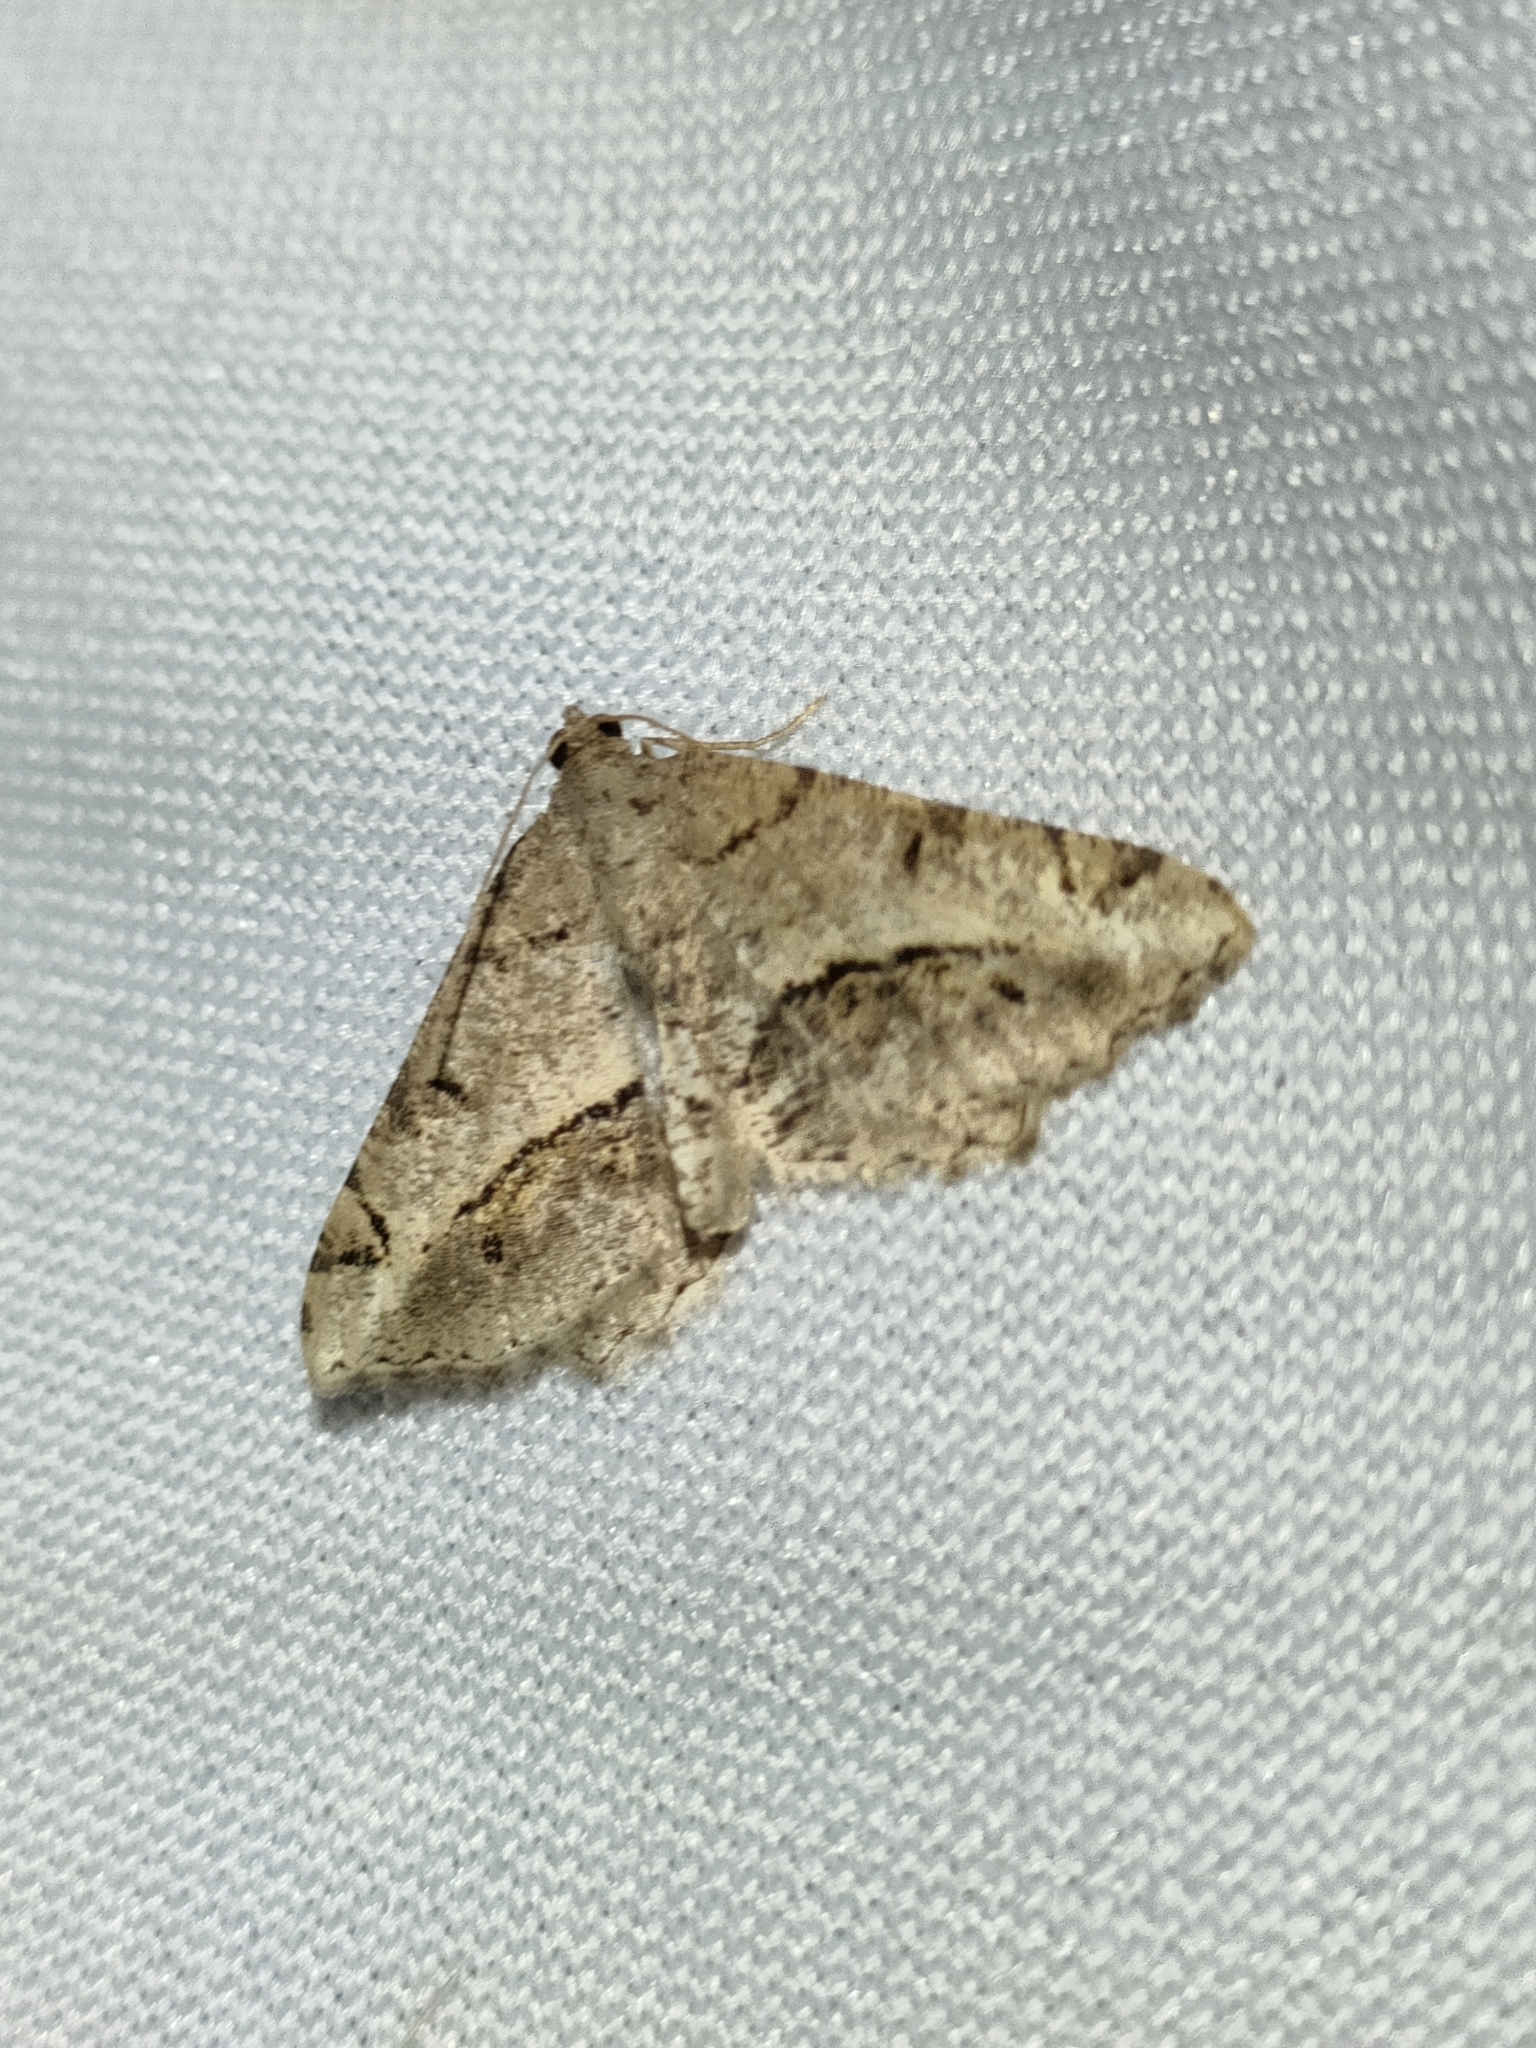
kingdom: Animalia
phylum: Arthropoda
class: Insecta
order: Lepidoptera
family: Geometridae
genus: Chiasmia
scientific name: Chiasmia aestimaria
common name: Tamarisk peacock
